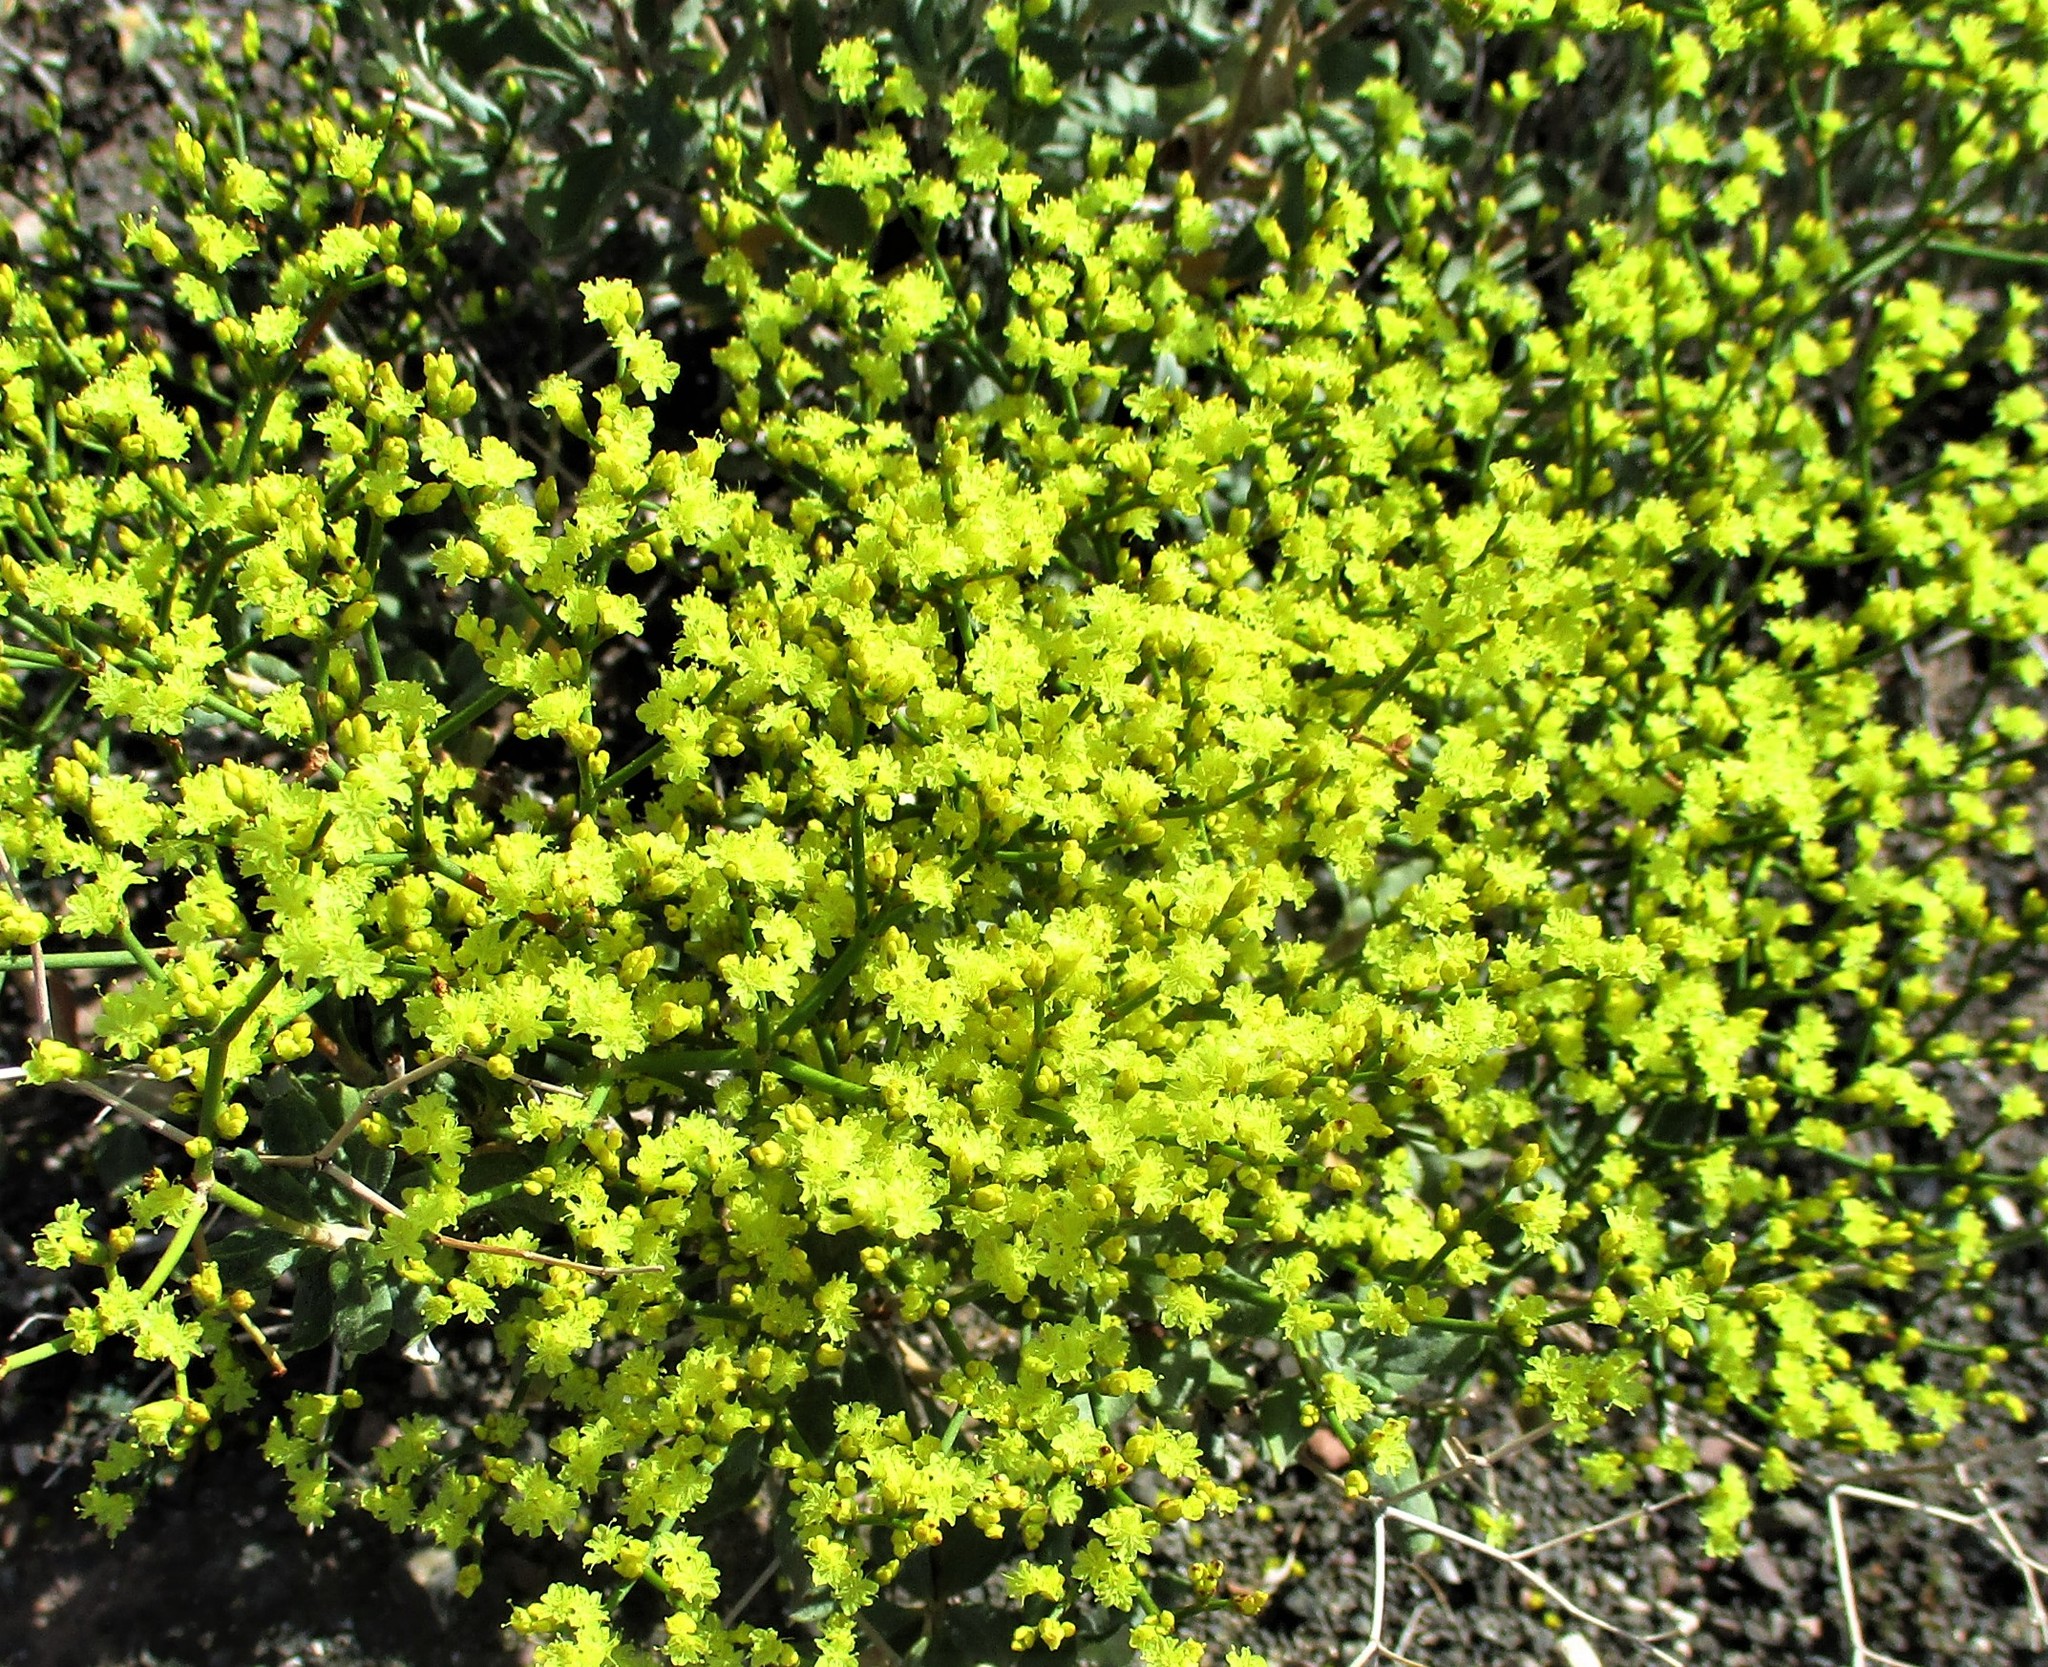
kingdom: Plantae
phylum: Tracheophyta
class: Magnoliopsida
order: Caryophyllales
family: Polygonaceae
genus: Eriogonum
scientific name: Eriogonum corymbosum
